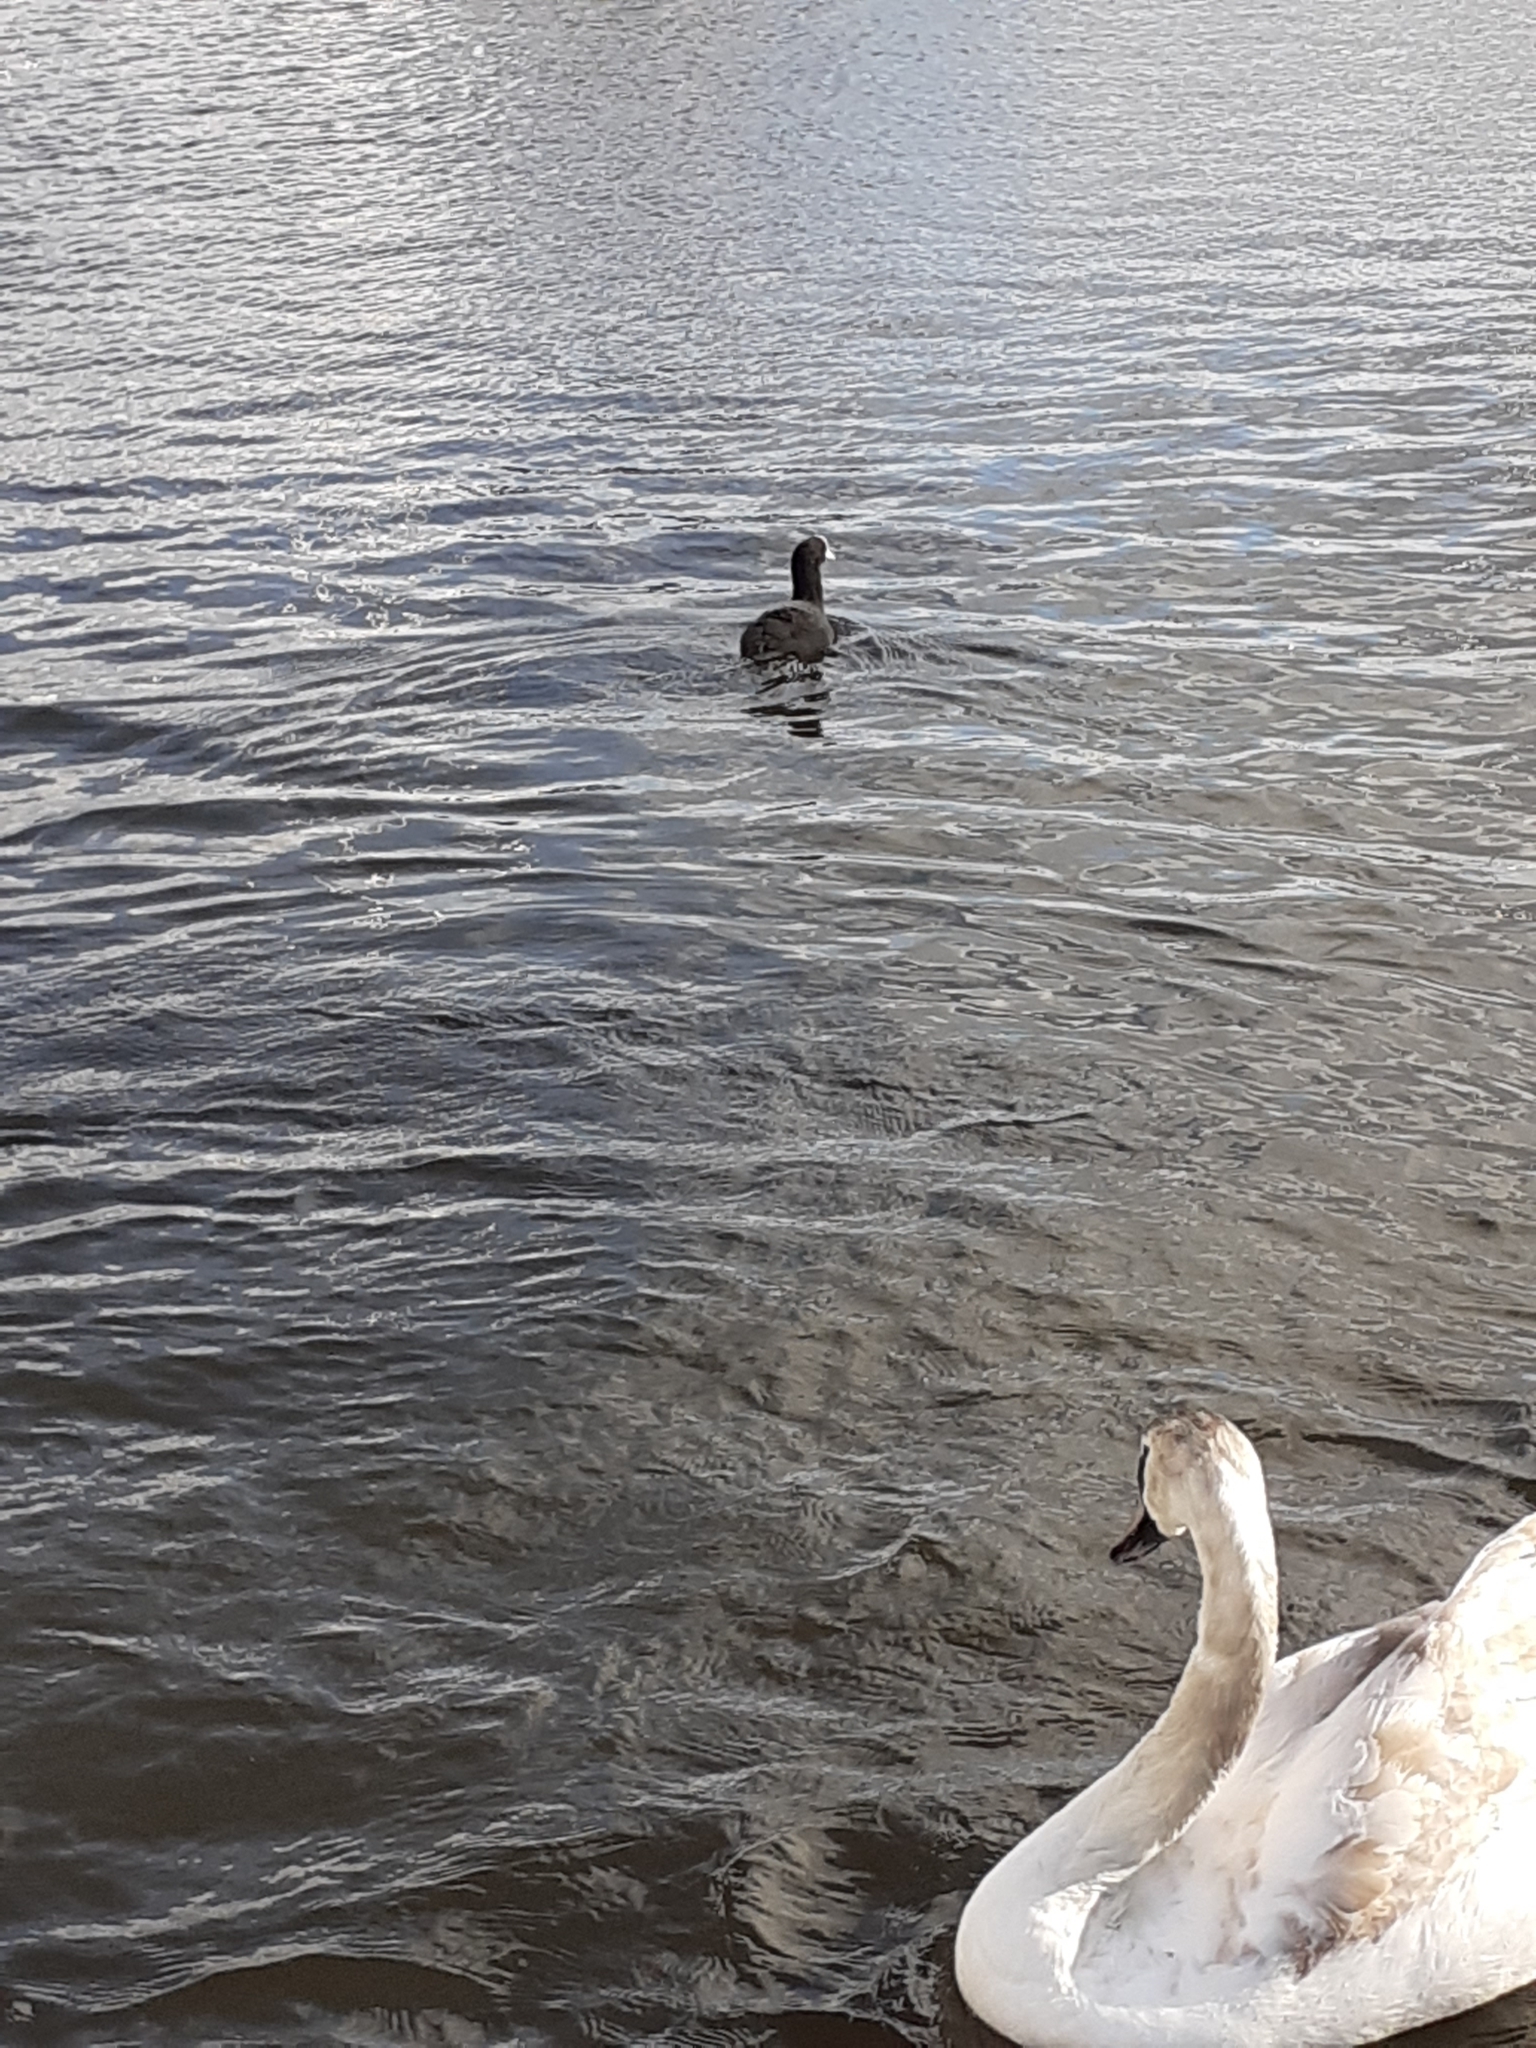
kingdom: Animalia
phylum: Chordata
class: Aves
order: Gruiformes
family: Rallidae
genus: Fulica
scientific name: Fulica atra
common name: Eurasian coot
